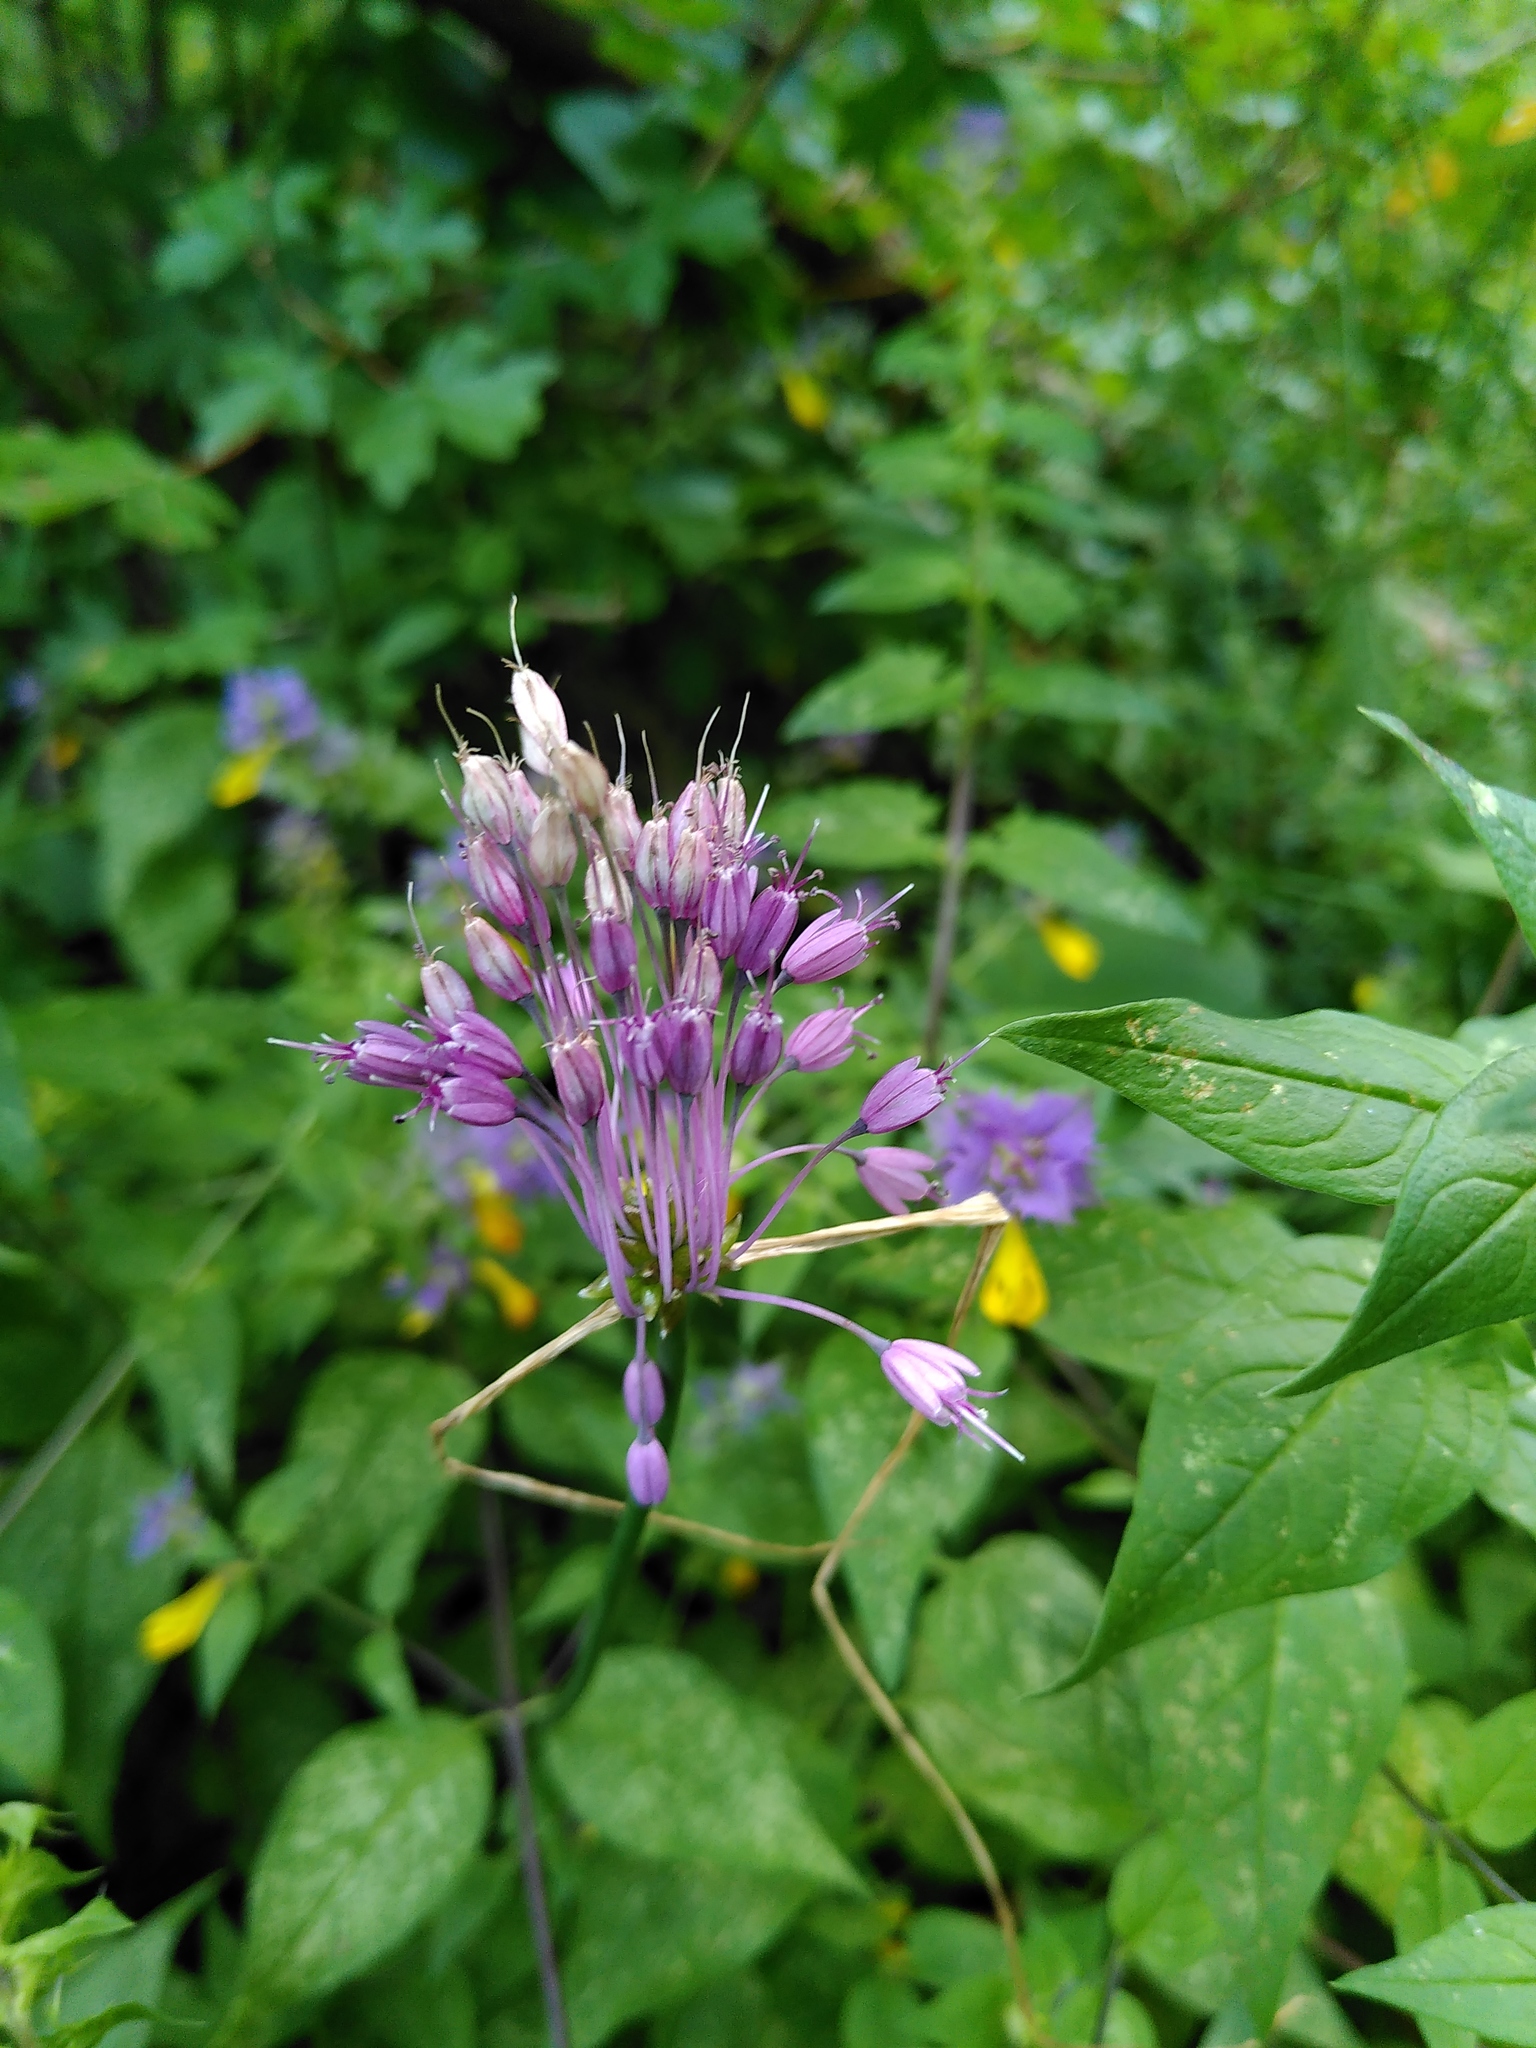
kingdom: Plantae
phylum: Tracheophyta
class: Liliopsida
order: Asparagales
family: Amaryllidaceae
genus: Allium
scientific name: Allium carinatum
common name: Keeled garlic
